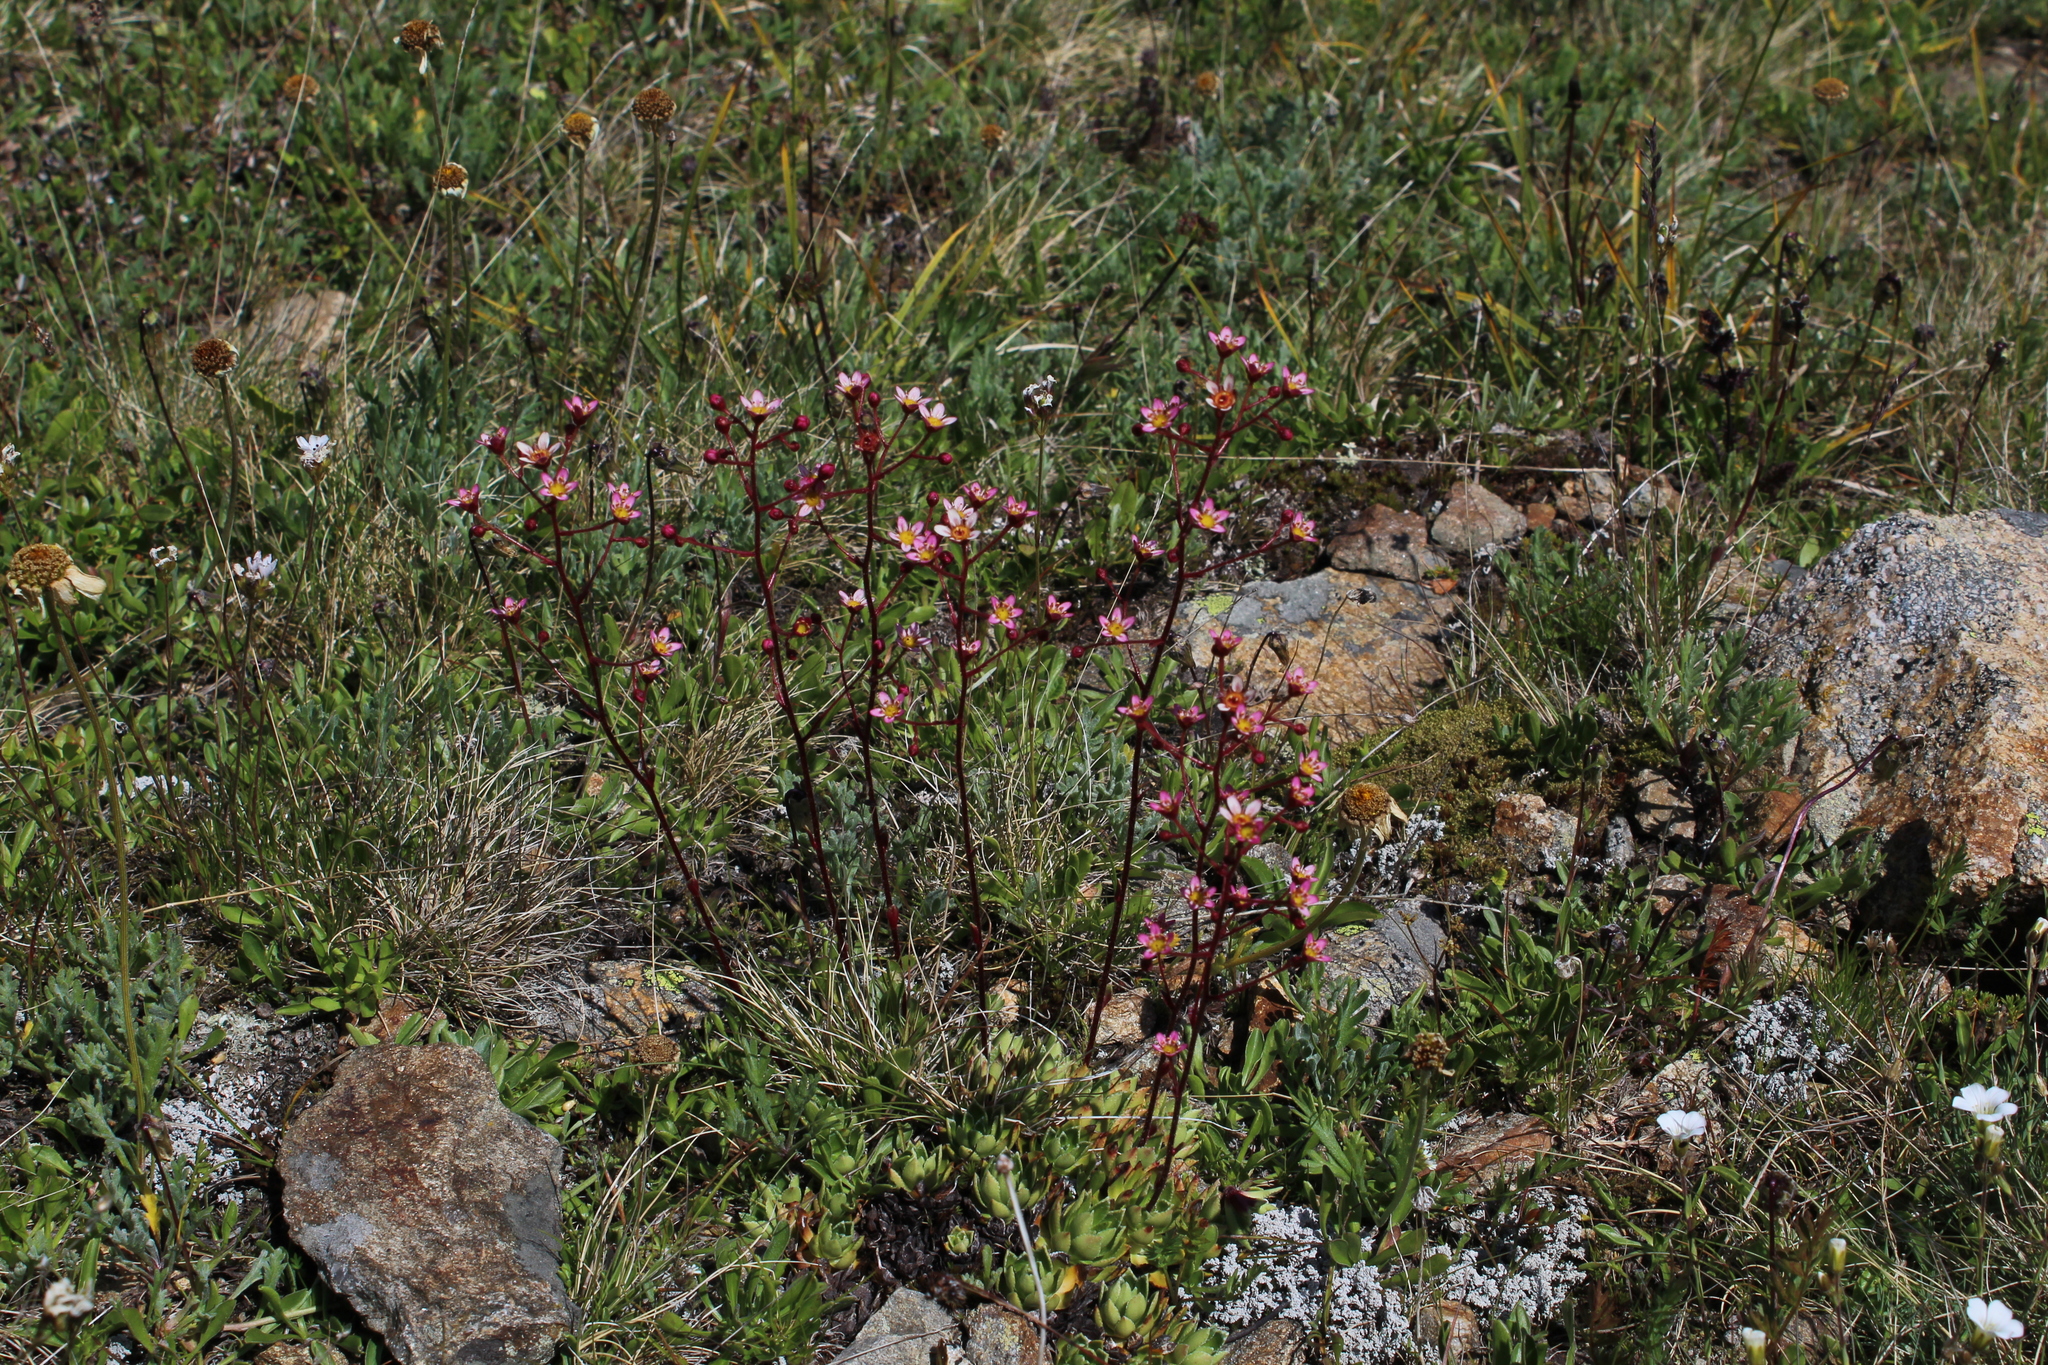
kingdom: Plantae
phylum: Tracheophyta
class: Magnoliopsida
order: Saxifragales
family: Saxifragaceae
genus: Saxifraga
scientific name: Saxifraga kolenatiana
